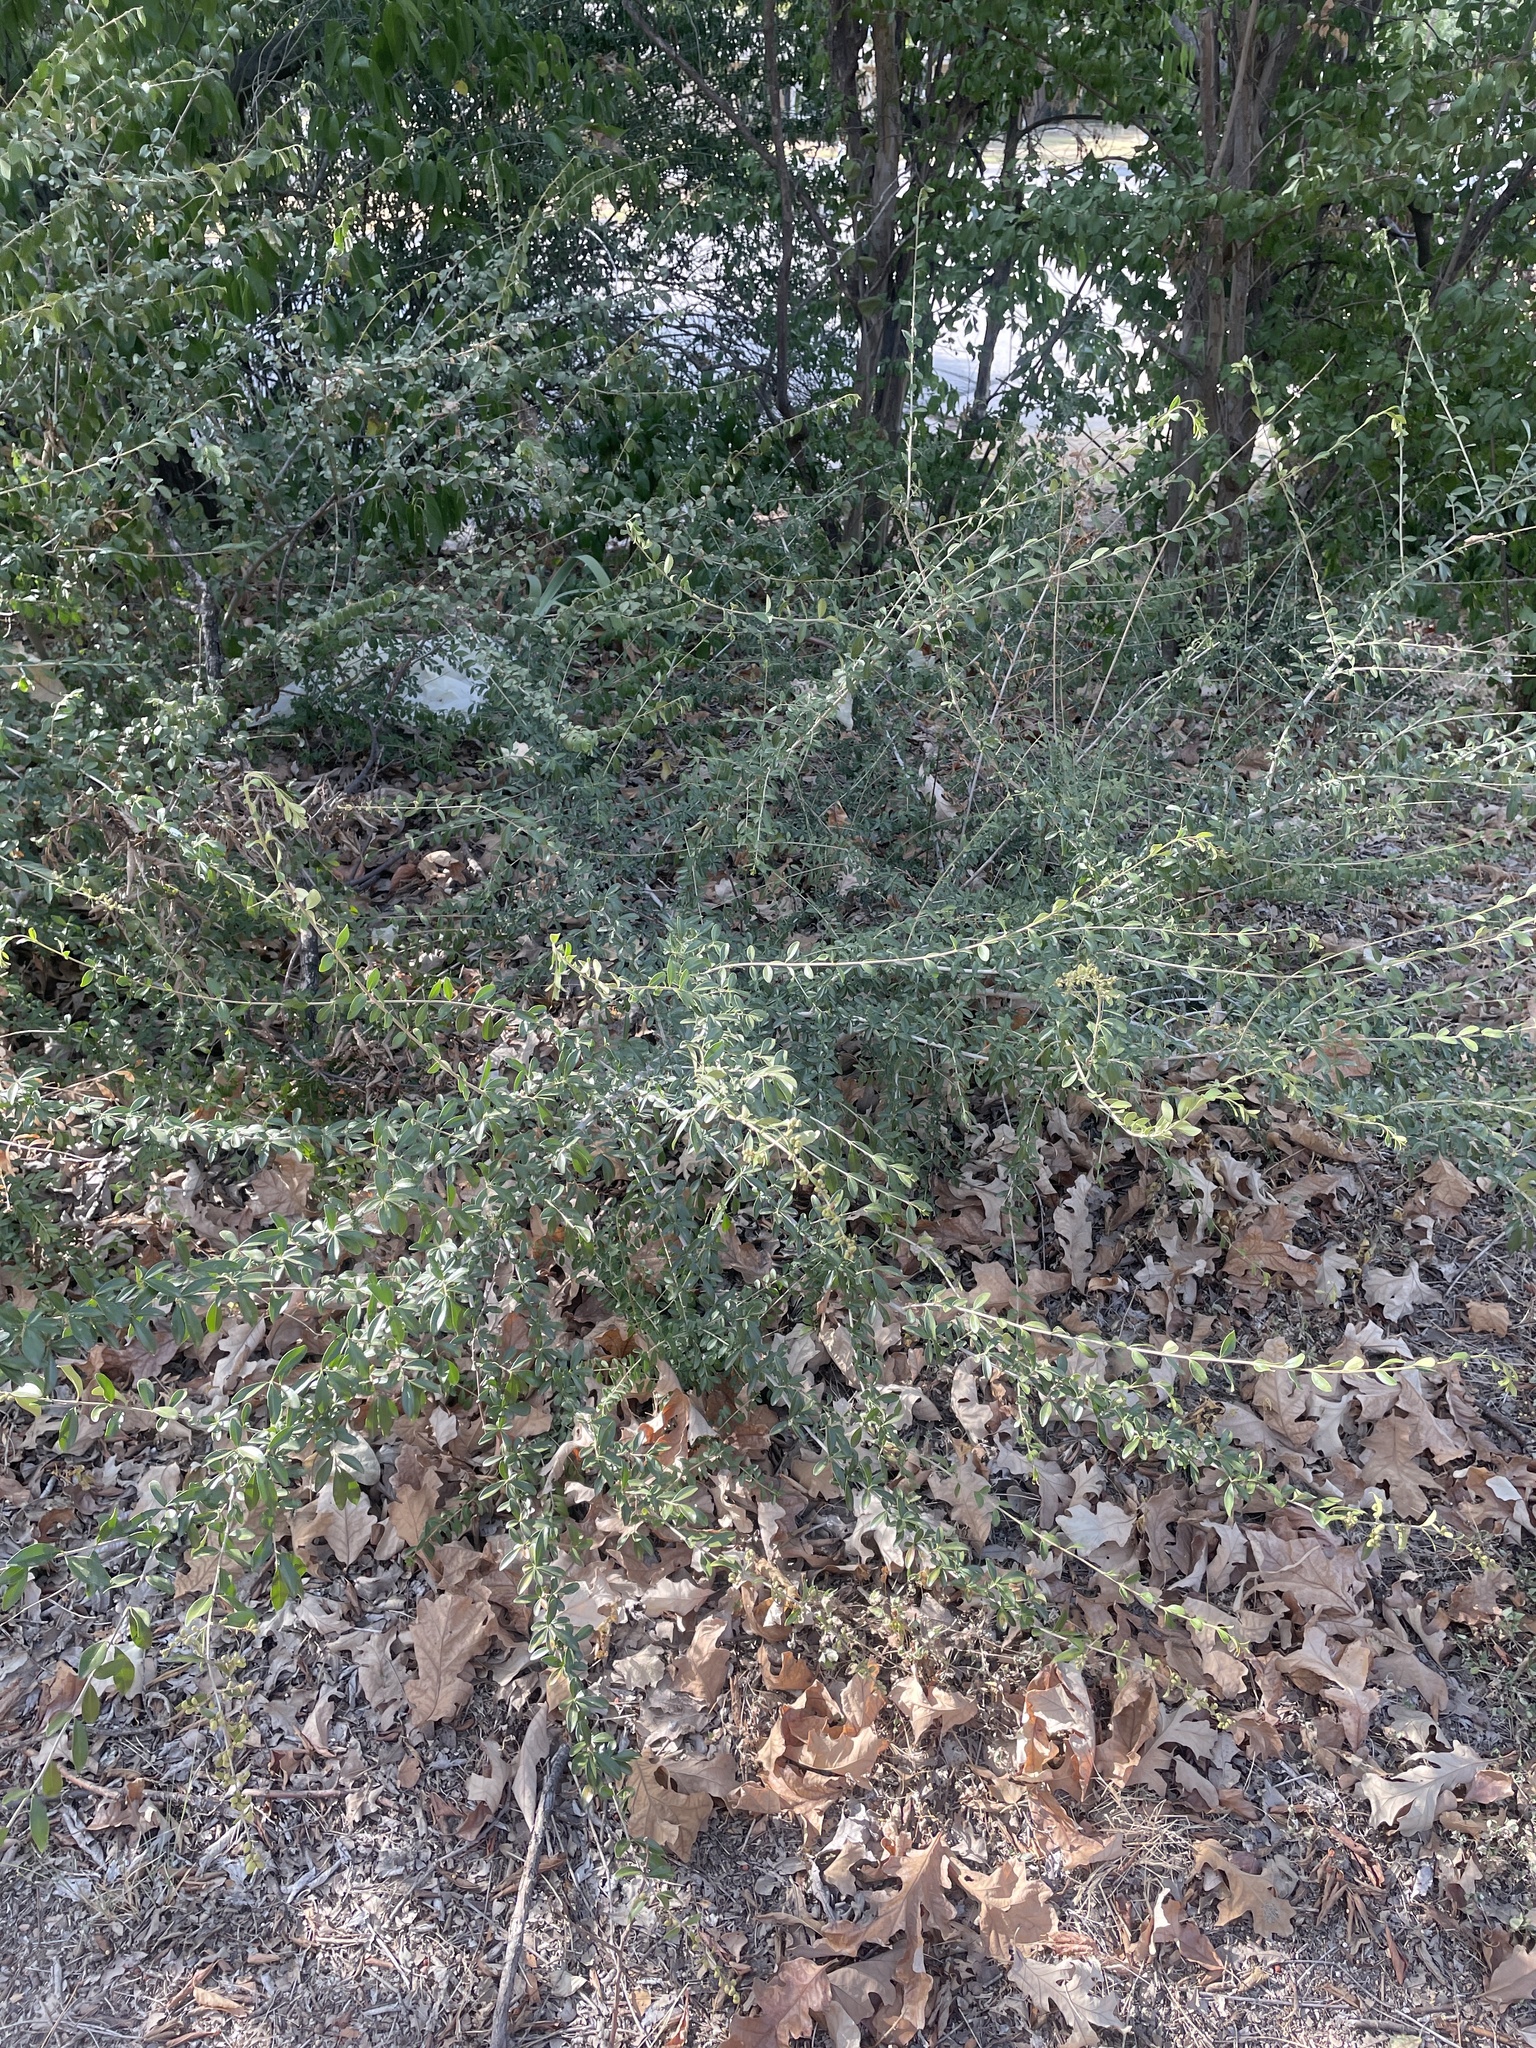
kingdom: Plantae
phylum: Tracheophyta
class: Magnoliopsida
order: Lamiales
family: Oleaceae
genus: Ligustrum
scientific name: Ligustrum quihoui
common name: Waxyleaf privet
